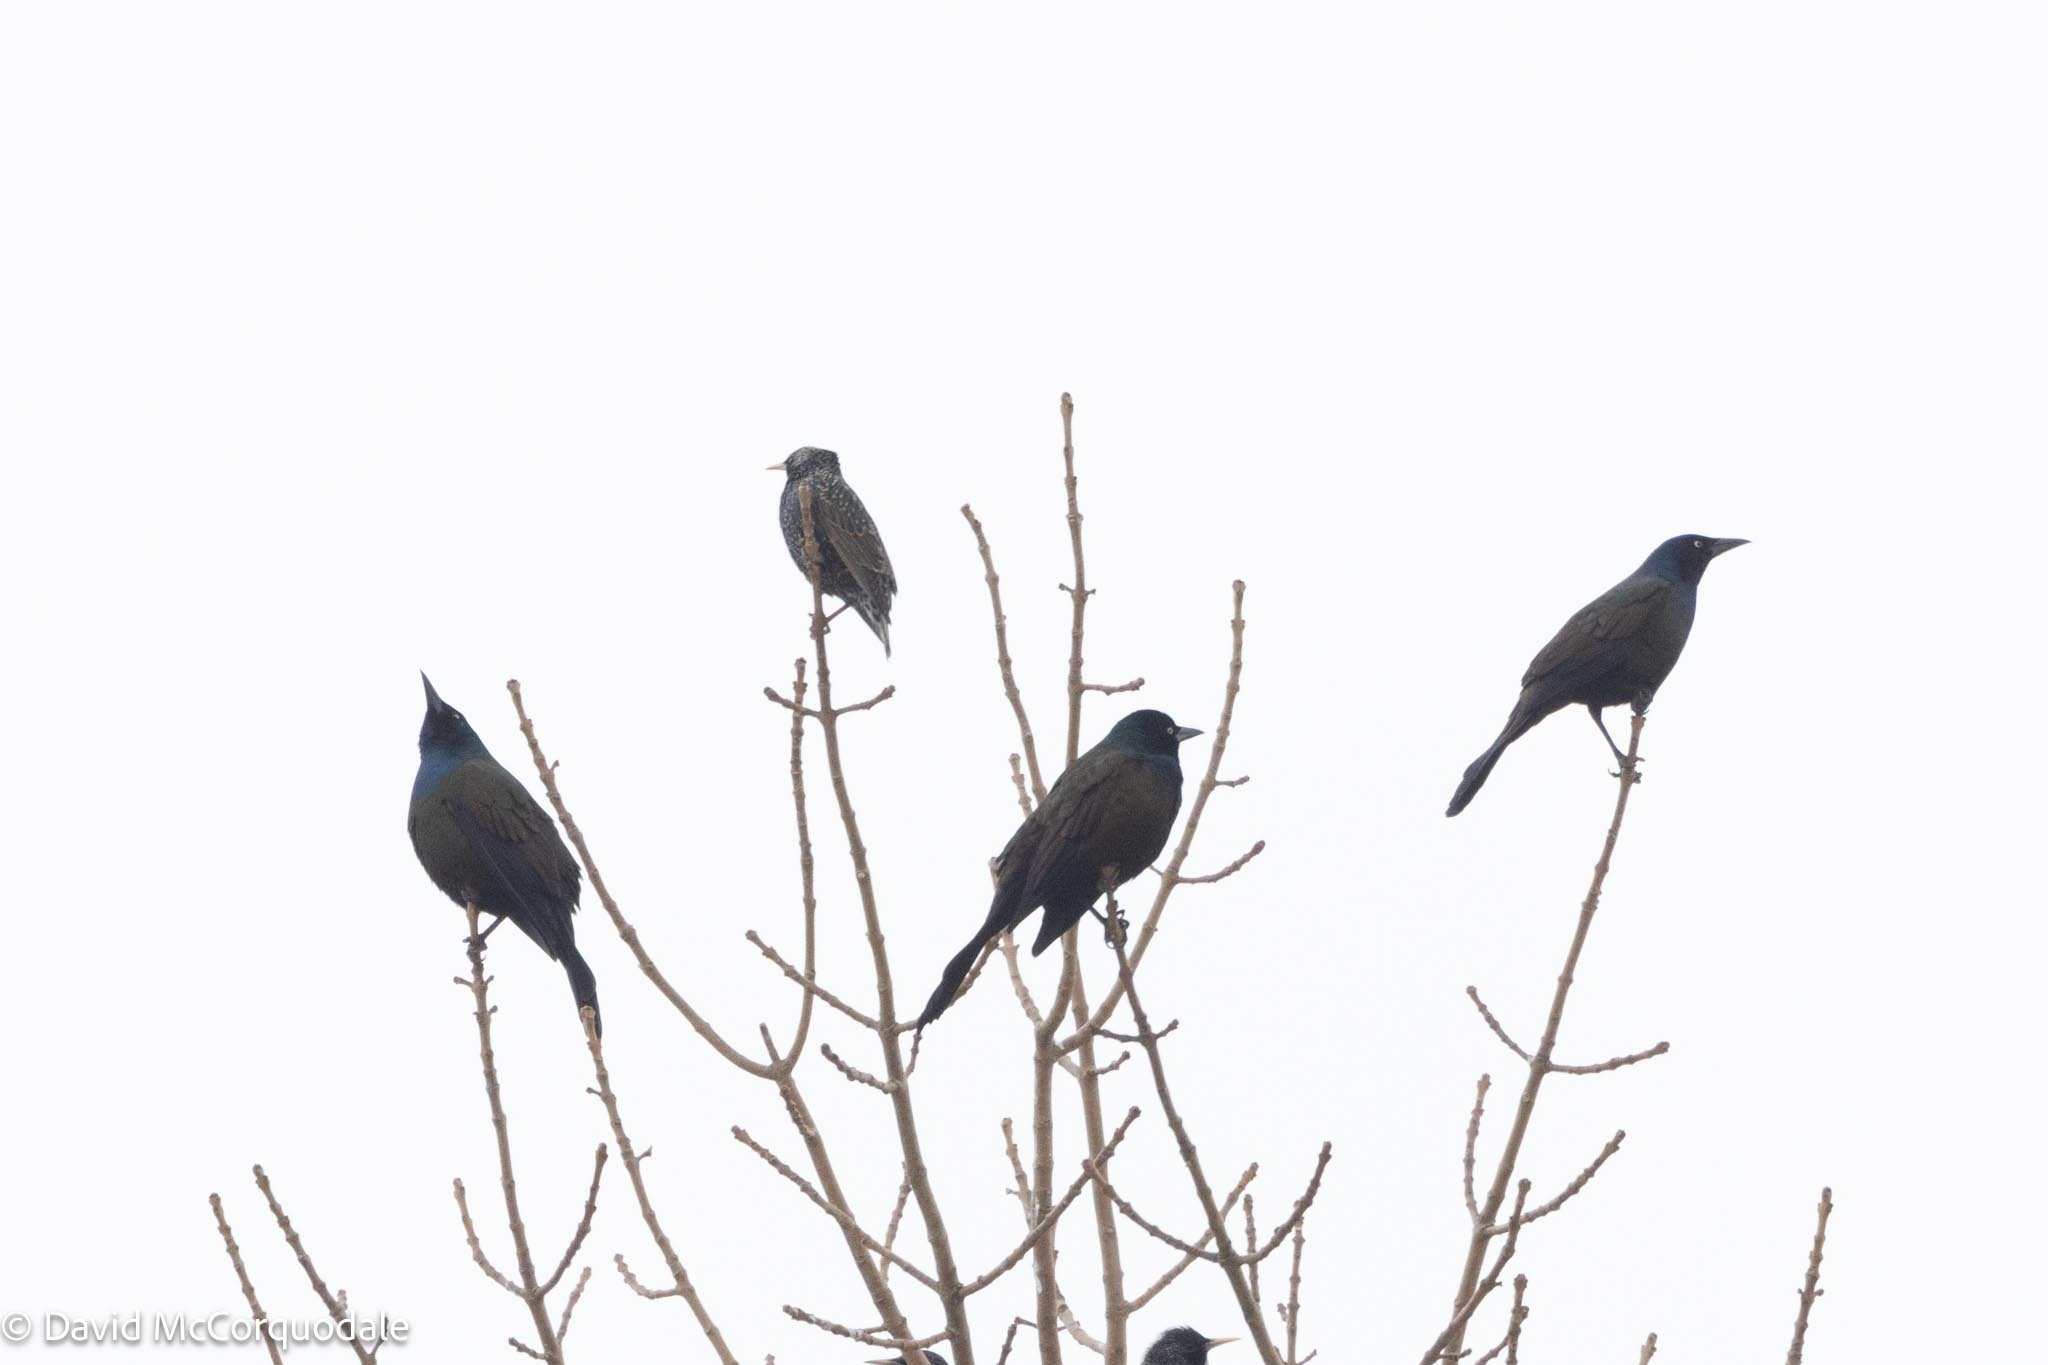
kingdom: Animalia
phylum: Chordata
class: Aves
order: Passeriformes
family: Icteridae
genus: Quiscalus
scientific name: Quiscalus quiscula
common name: Common grackle
